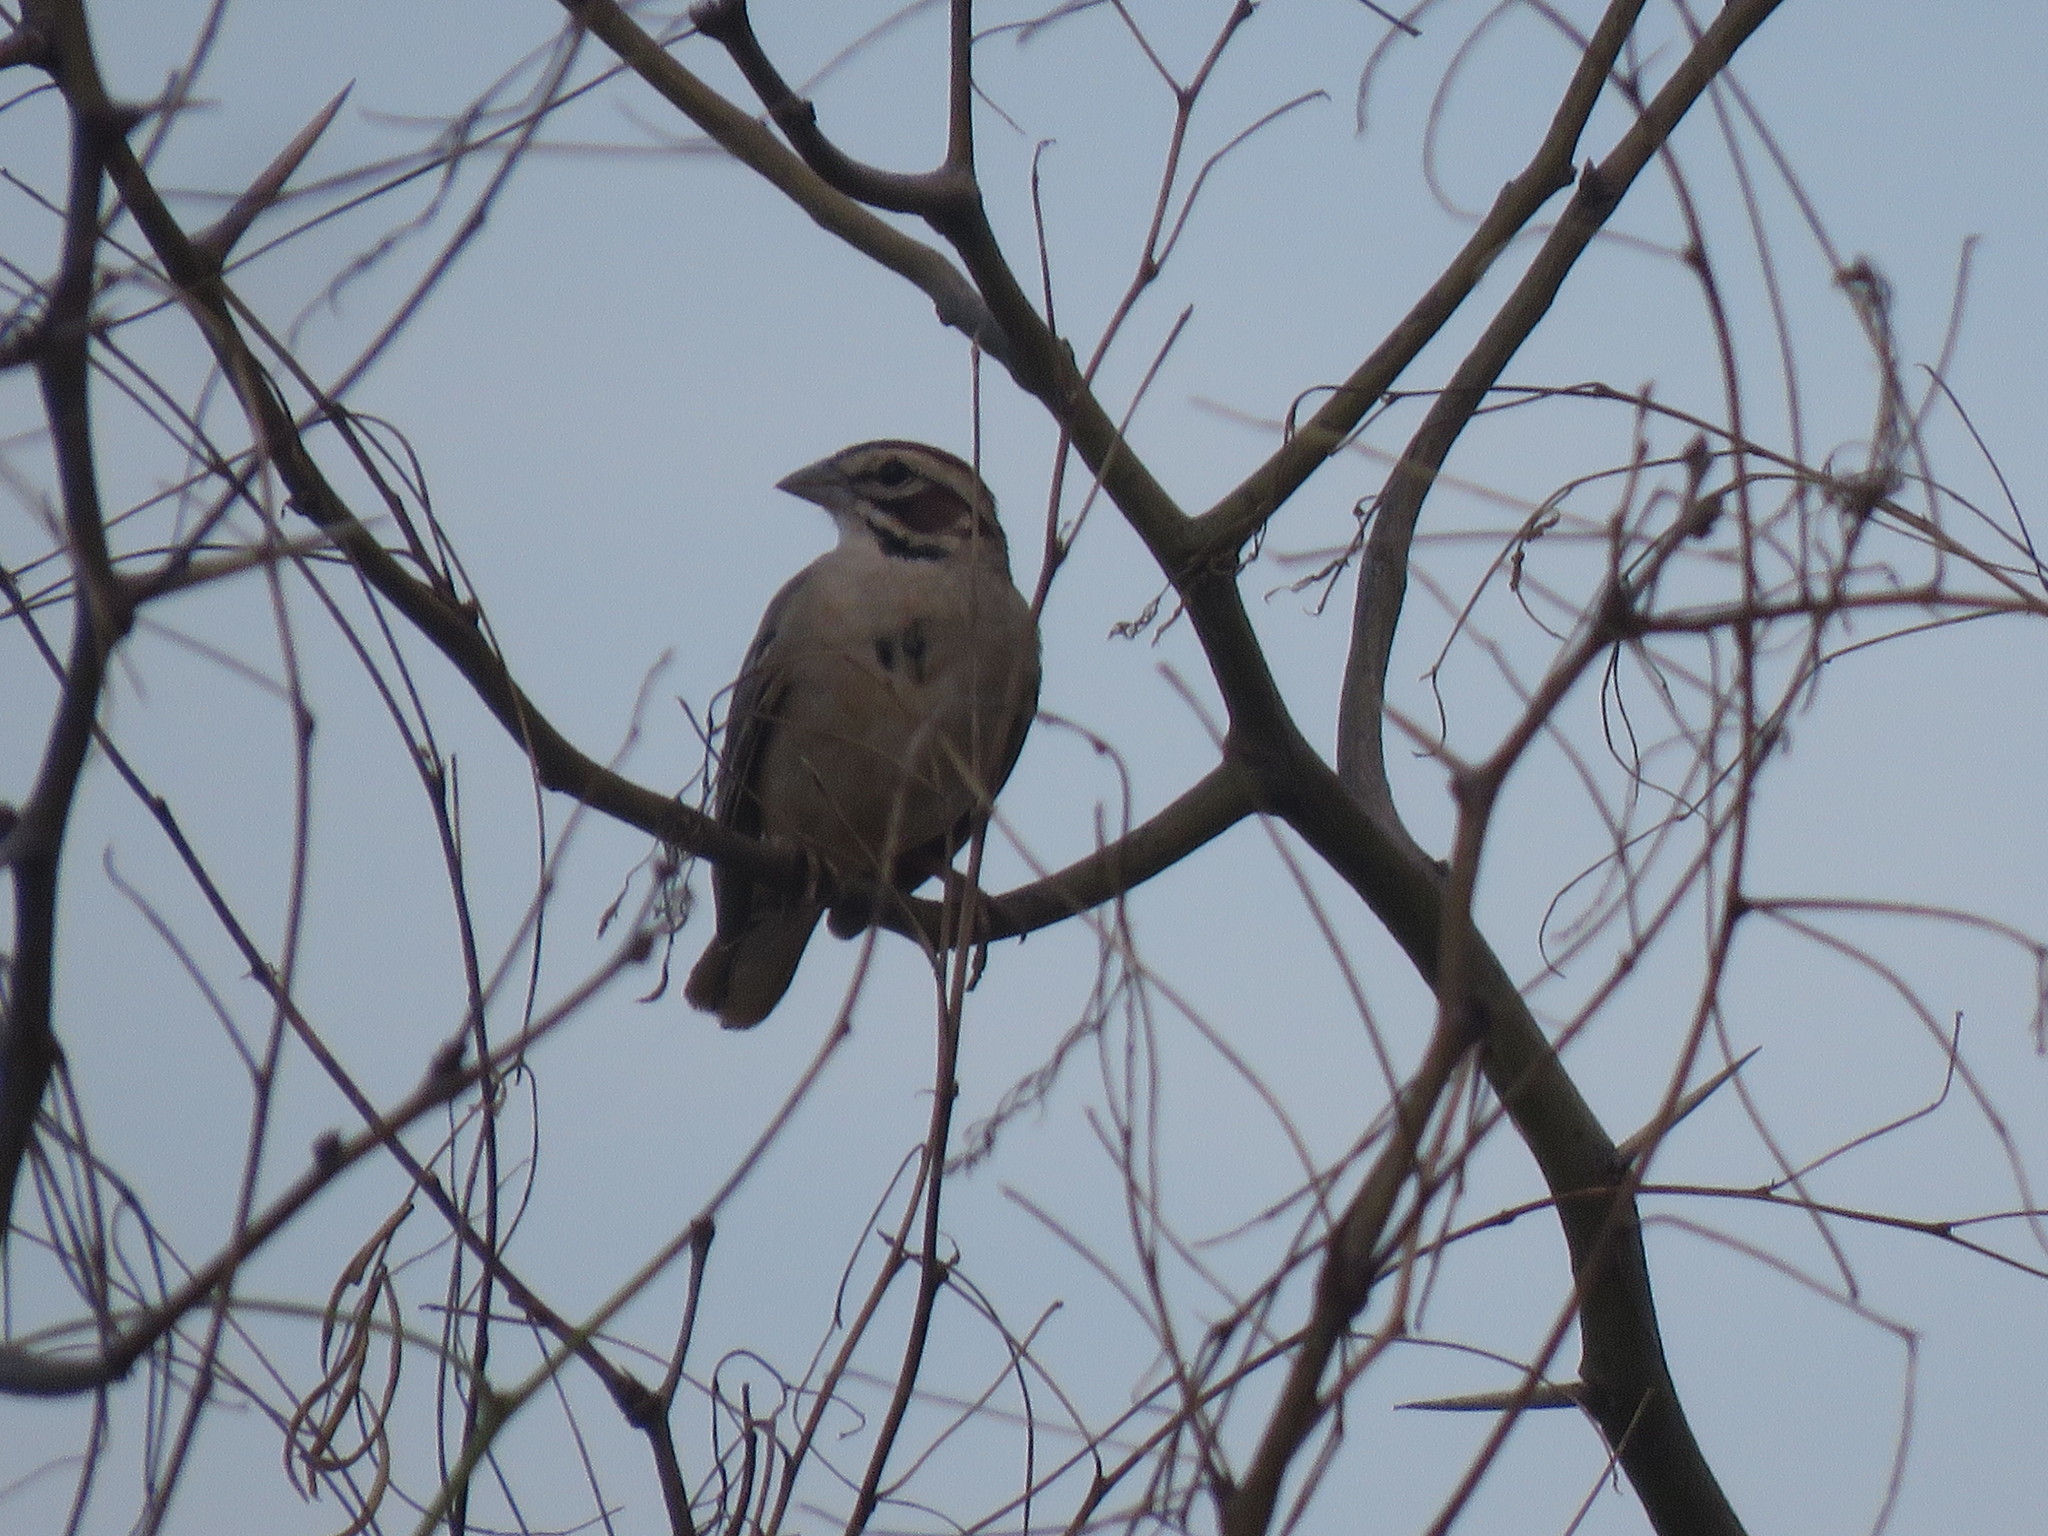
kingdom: Animalia
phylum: Chordata
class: Aves
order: Passeriformes
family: Passerellidae
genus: Chondestes
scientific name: Chondestes grammacus
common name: Lark sparrow
